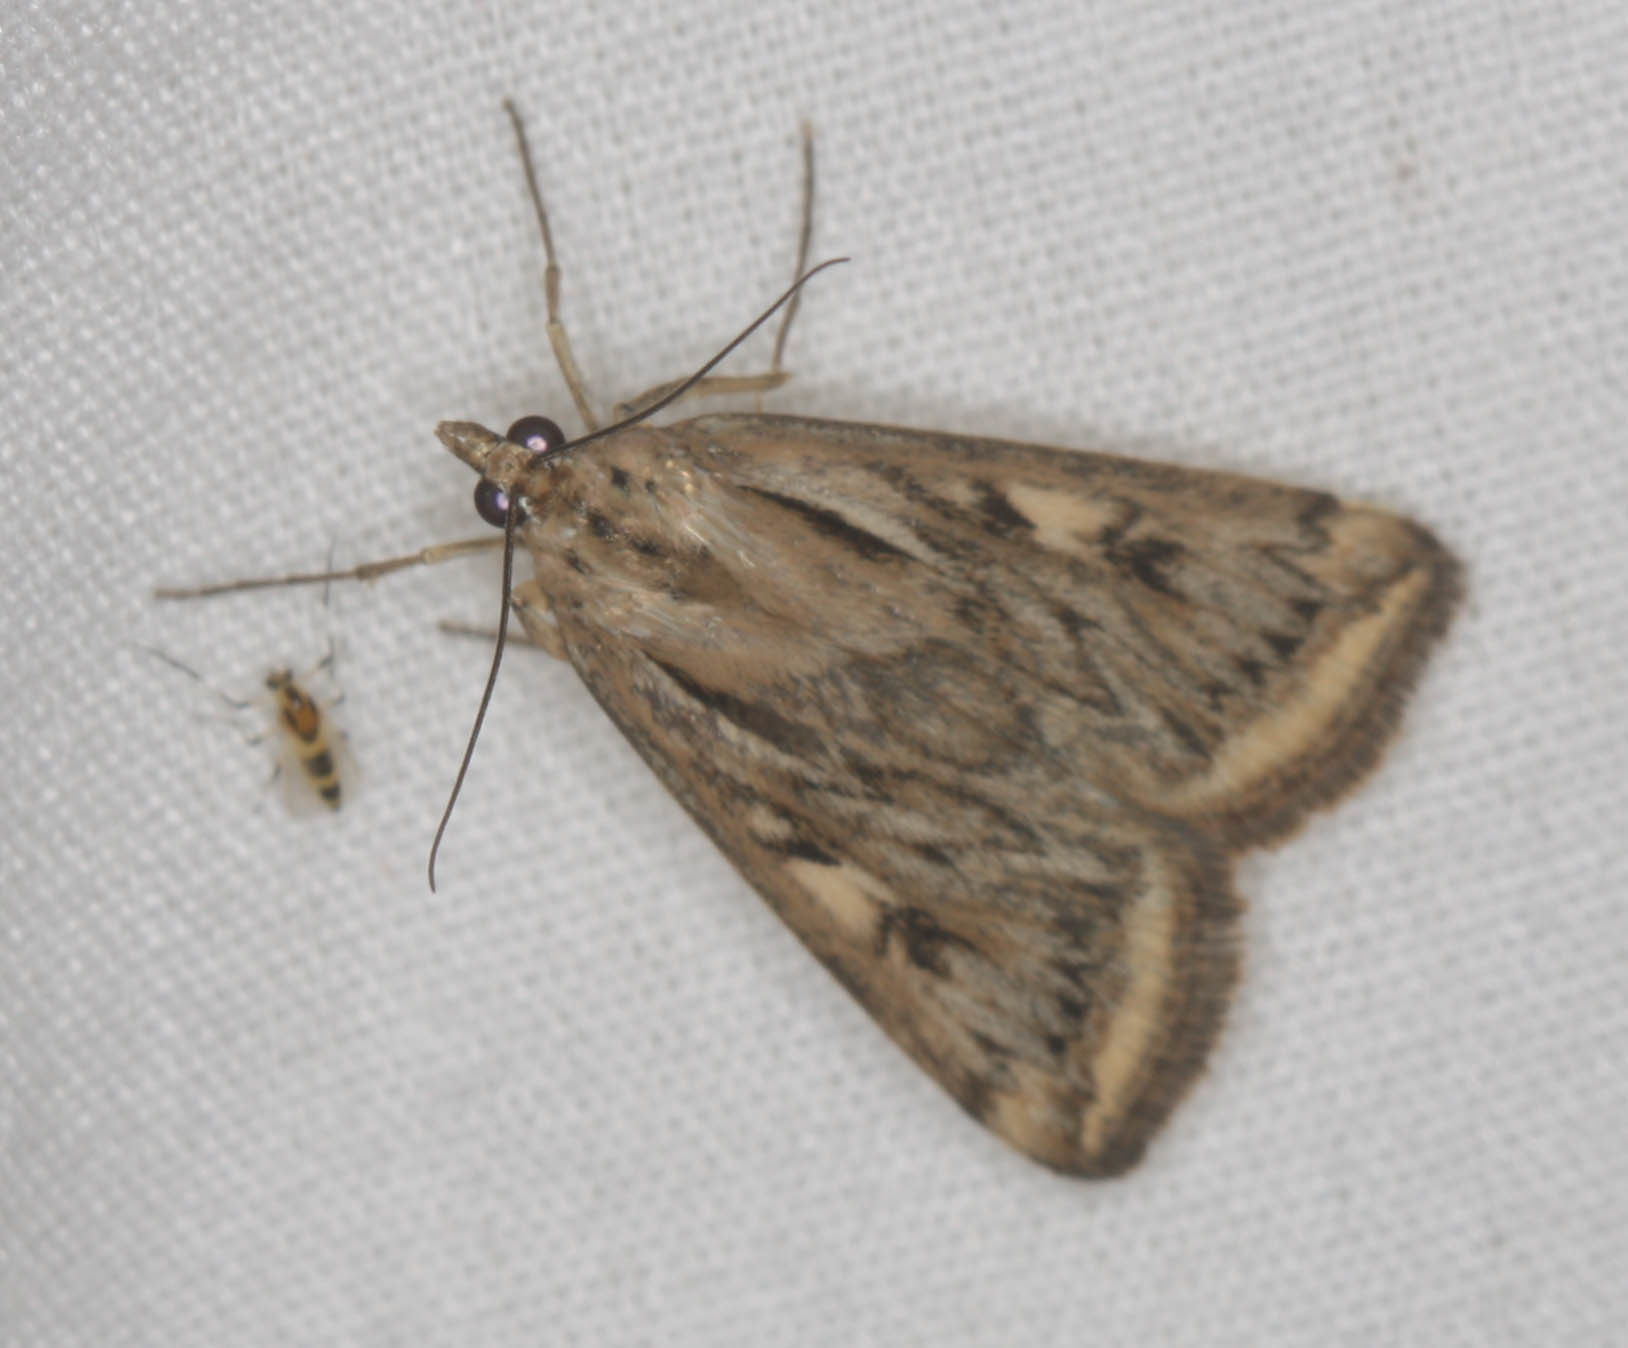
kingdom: Animalia
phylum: Arthropoda
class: Insecta
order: Lepidoptera
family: Crambidae
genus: Loxostege
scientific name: Loxostege cereralis
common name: Alfalfa webworm moth
